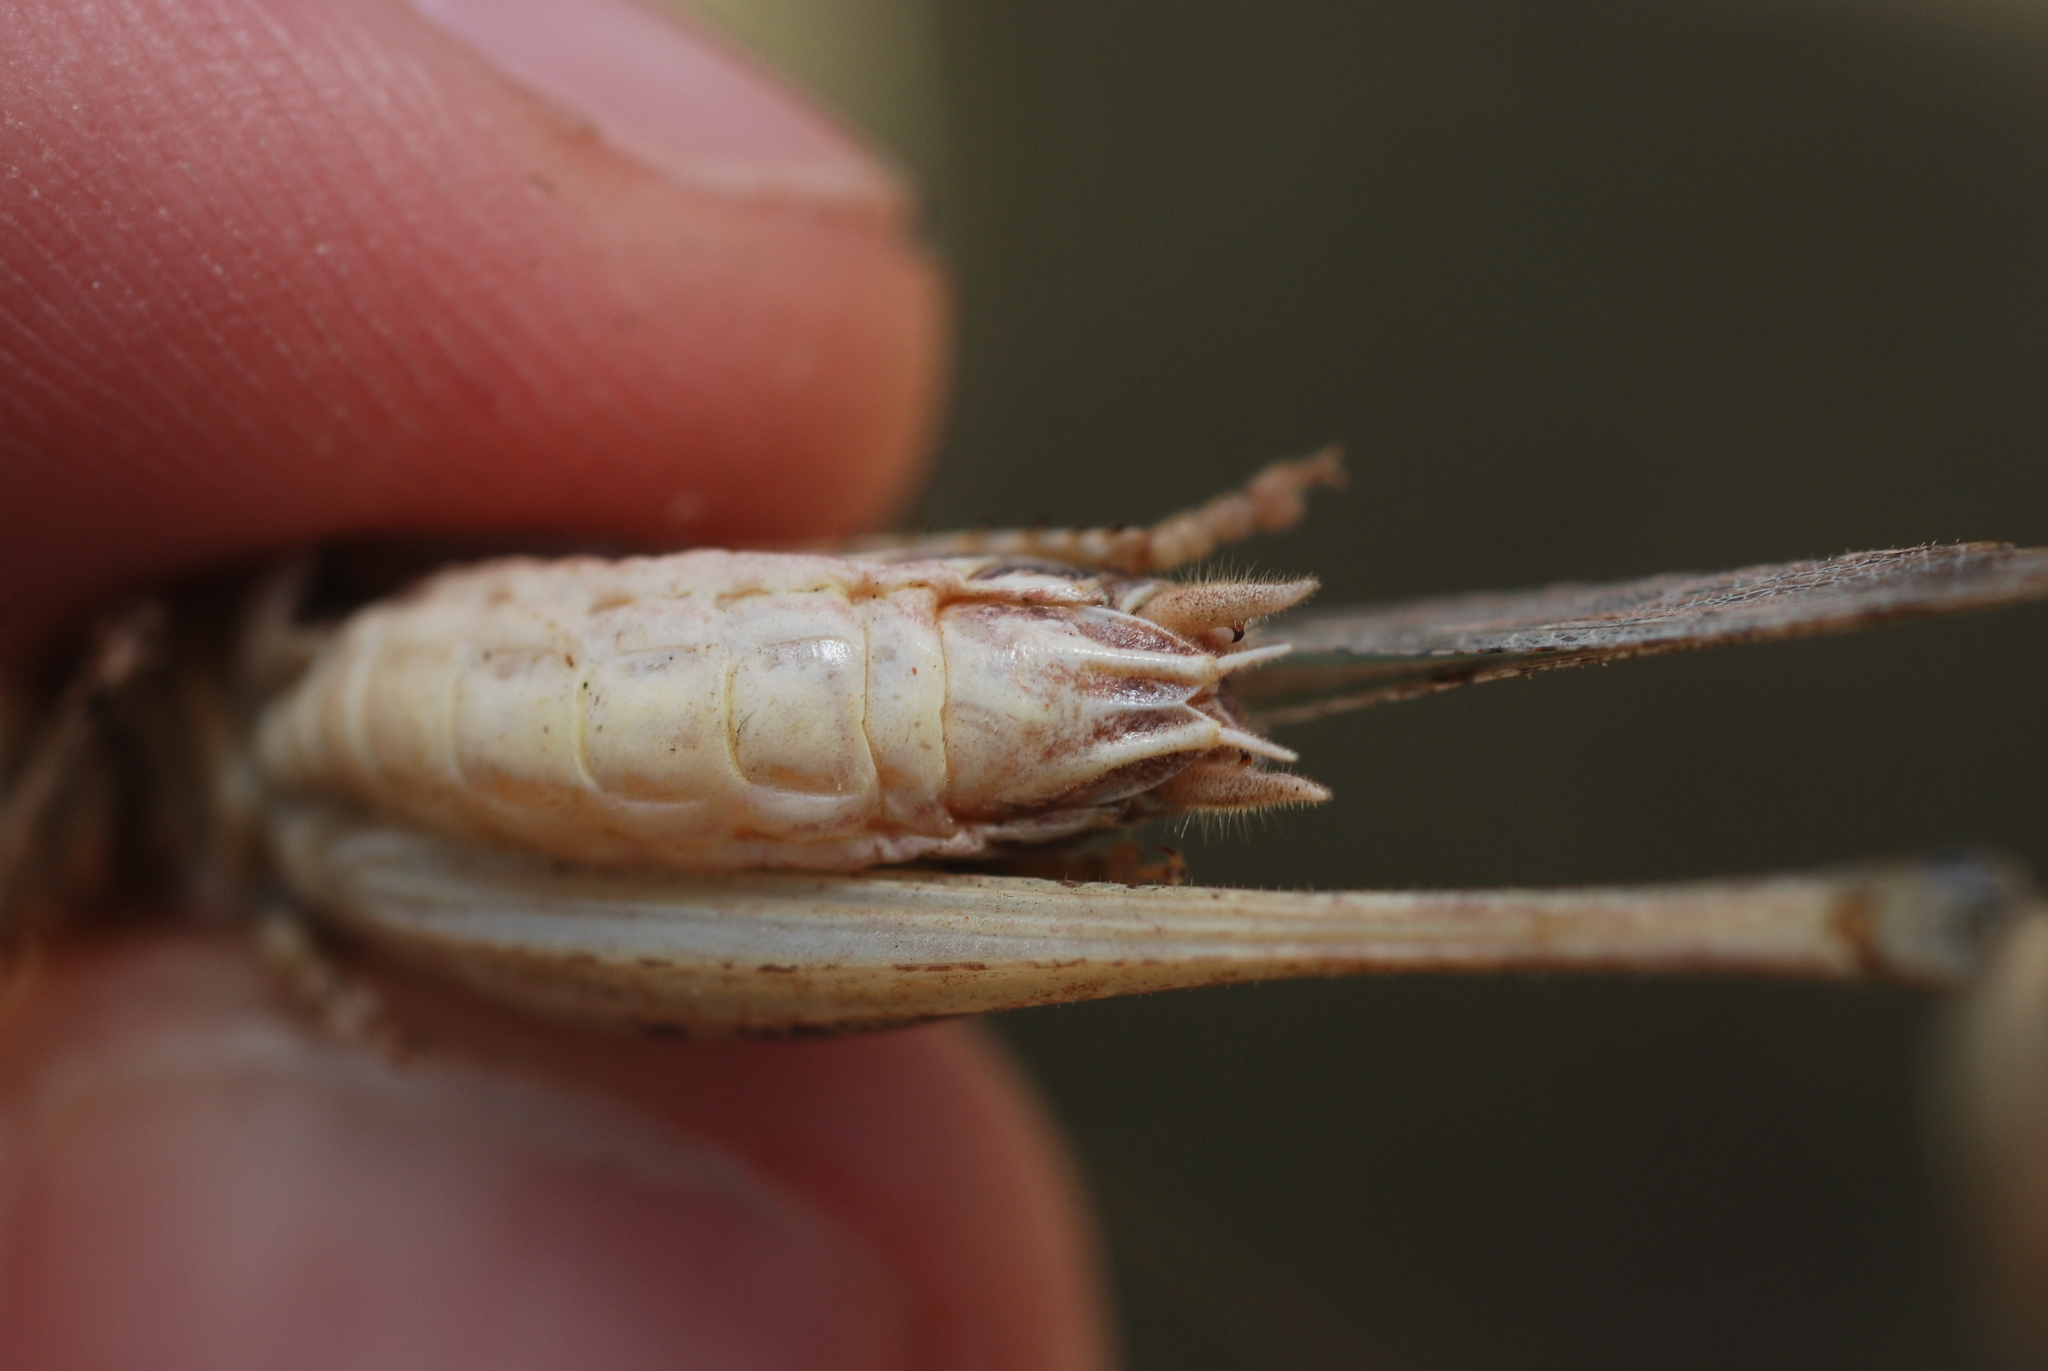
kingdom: Animalia
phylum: Arthropoda
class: Insecta
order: Orthoptera
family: Tettigoniidae
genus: Platycleis
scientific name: Platycleis affinis
